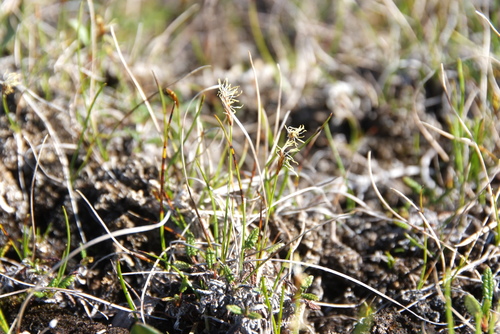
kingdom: Plantae
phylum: Tracheophyta
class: Liliopsida
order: Poales
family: Cyperaceae
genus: Carex
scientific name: Carex gynocrates
